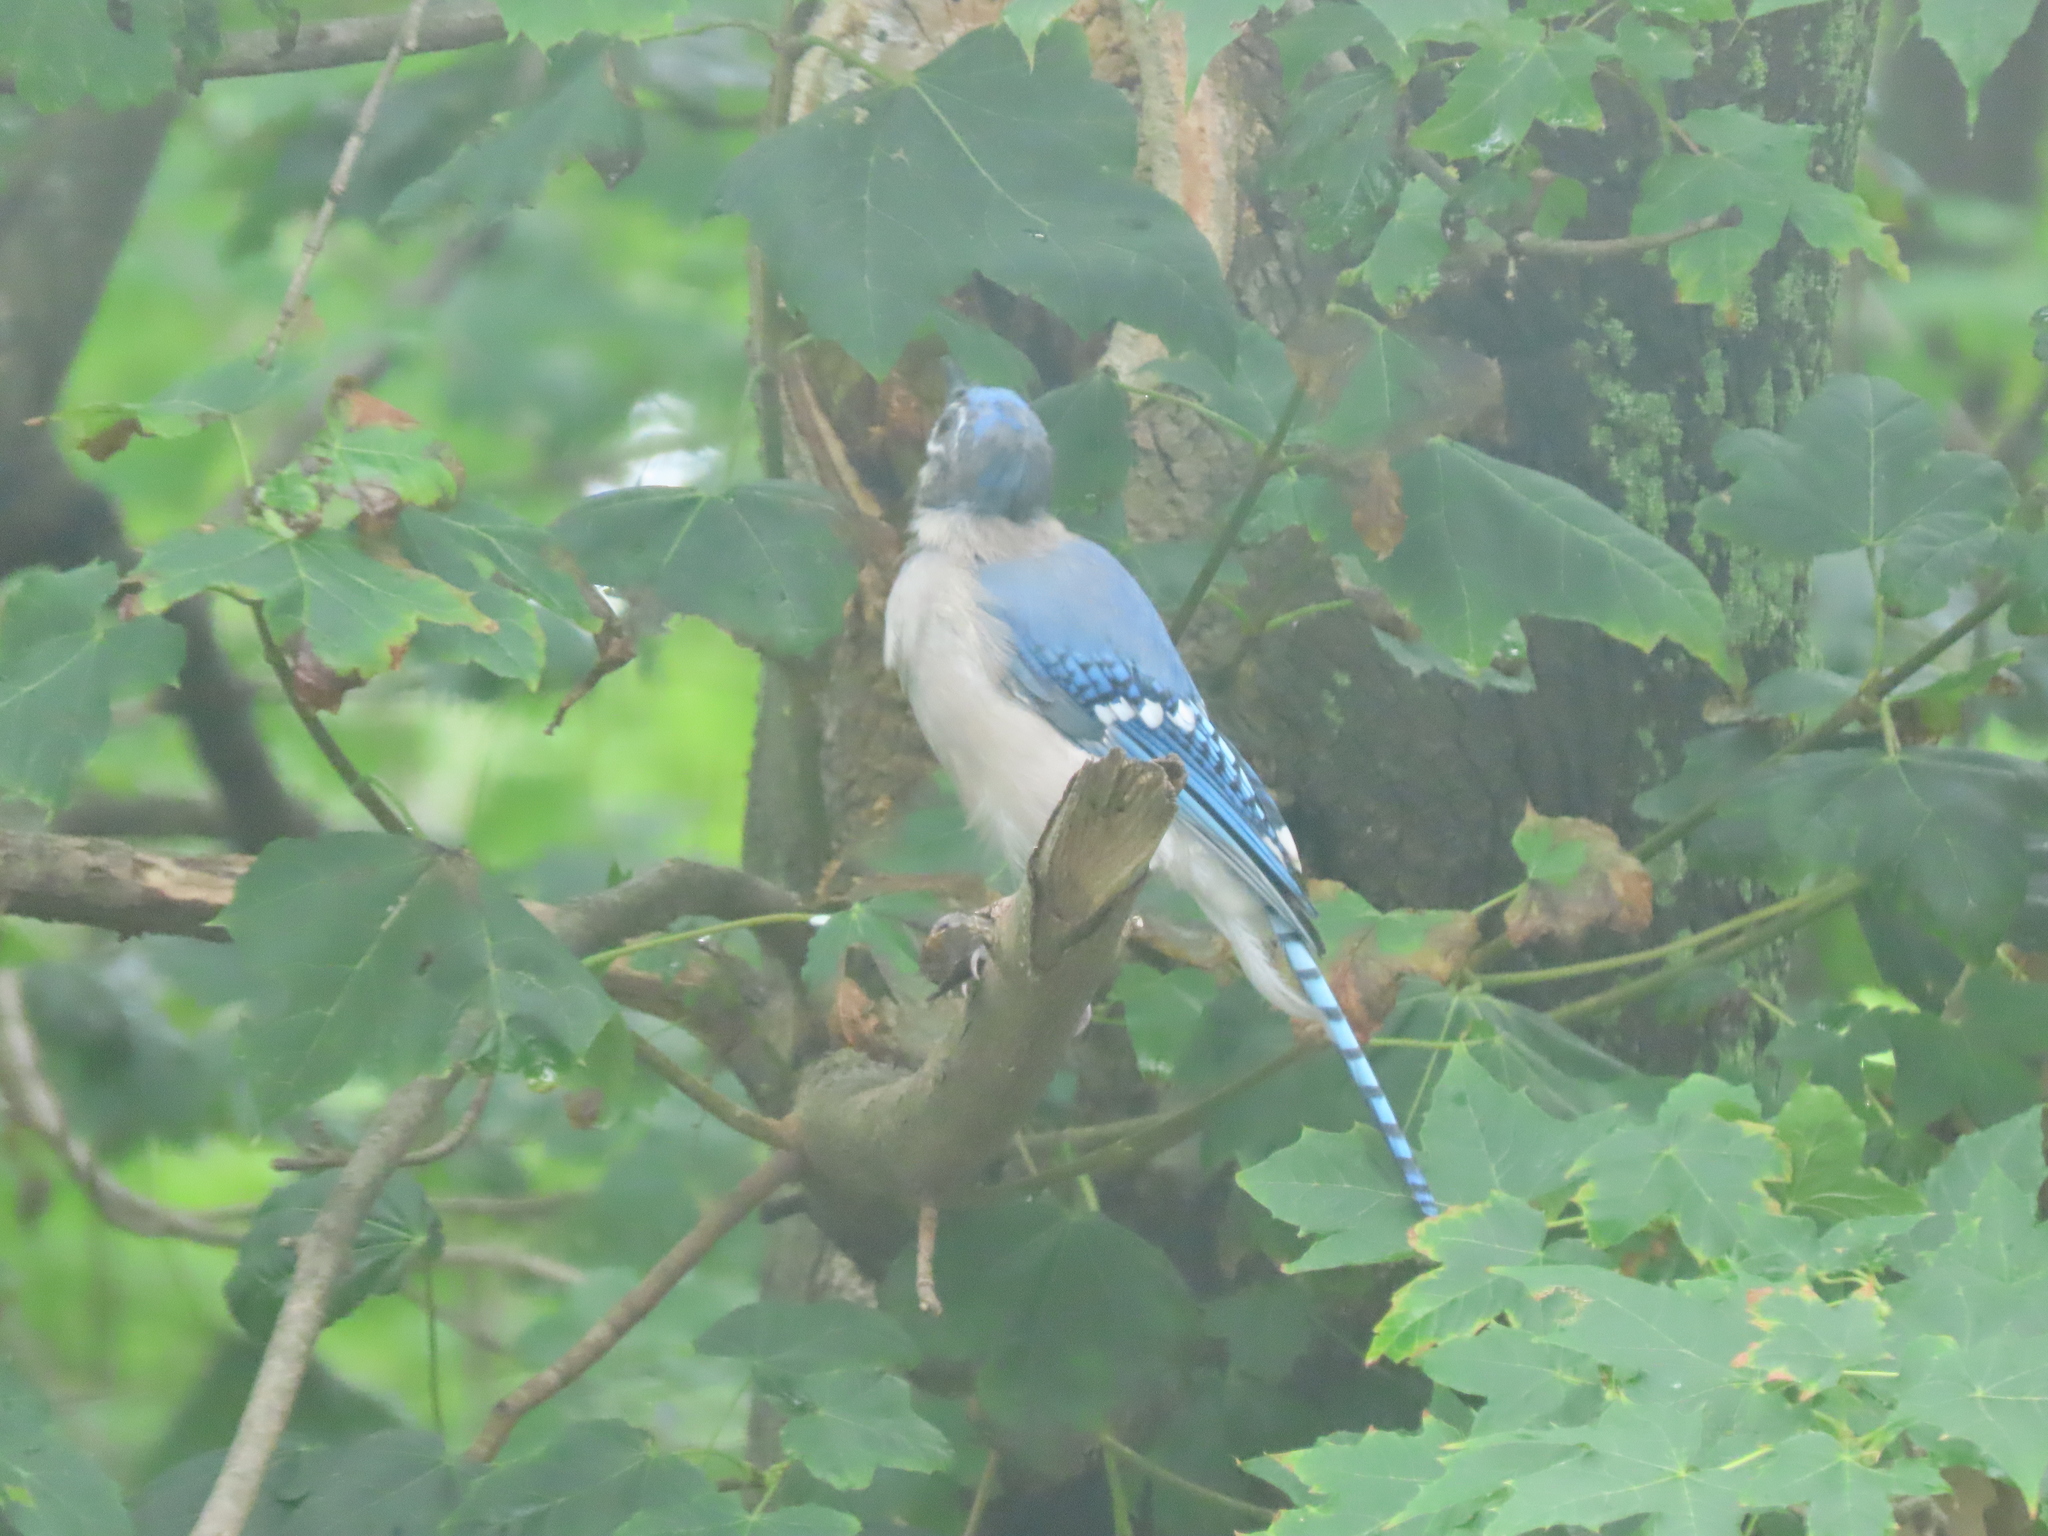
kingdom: Animalia
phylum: Chordata
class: Aves
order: Passeriformes
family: Corvidae
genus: Cyanocitta
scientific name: Cyanocitta cristata
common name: Blue jay
